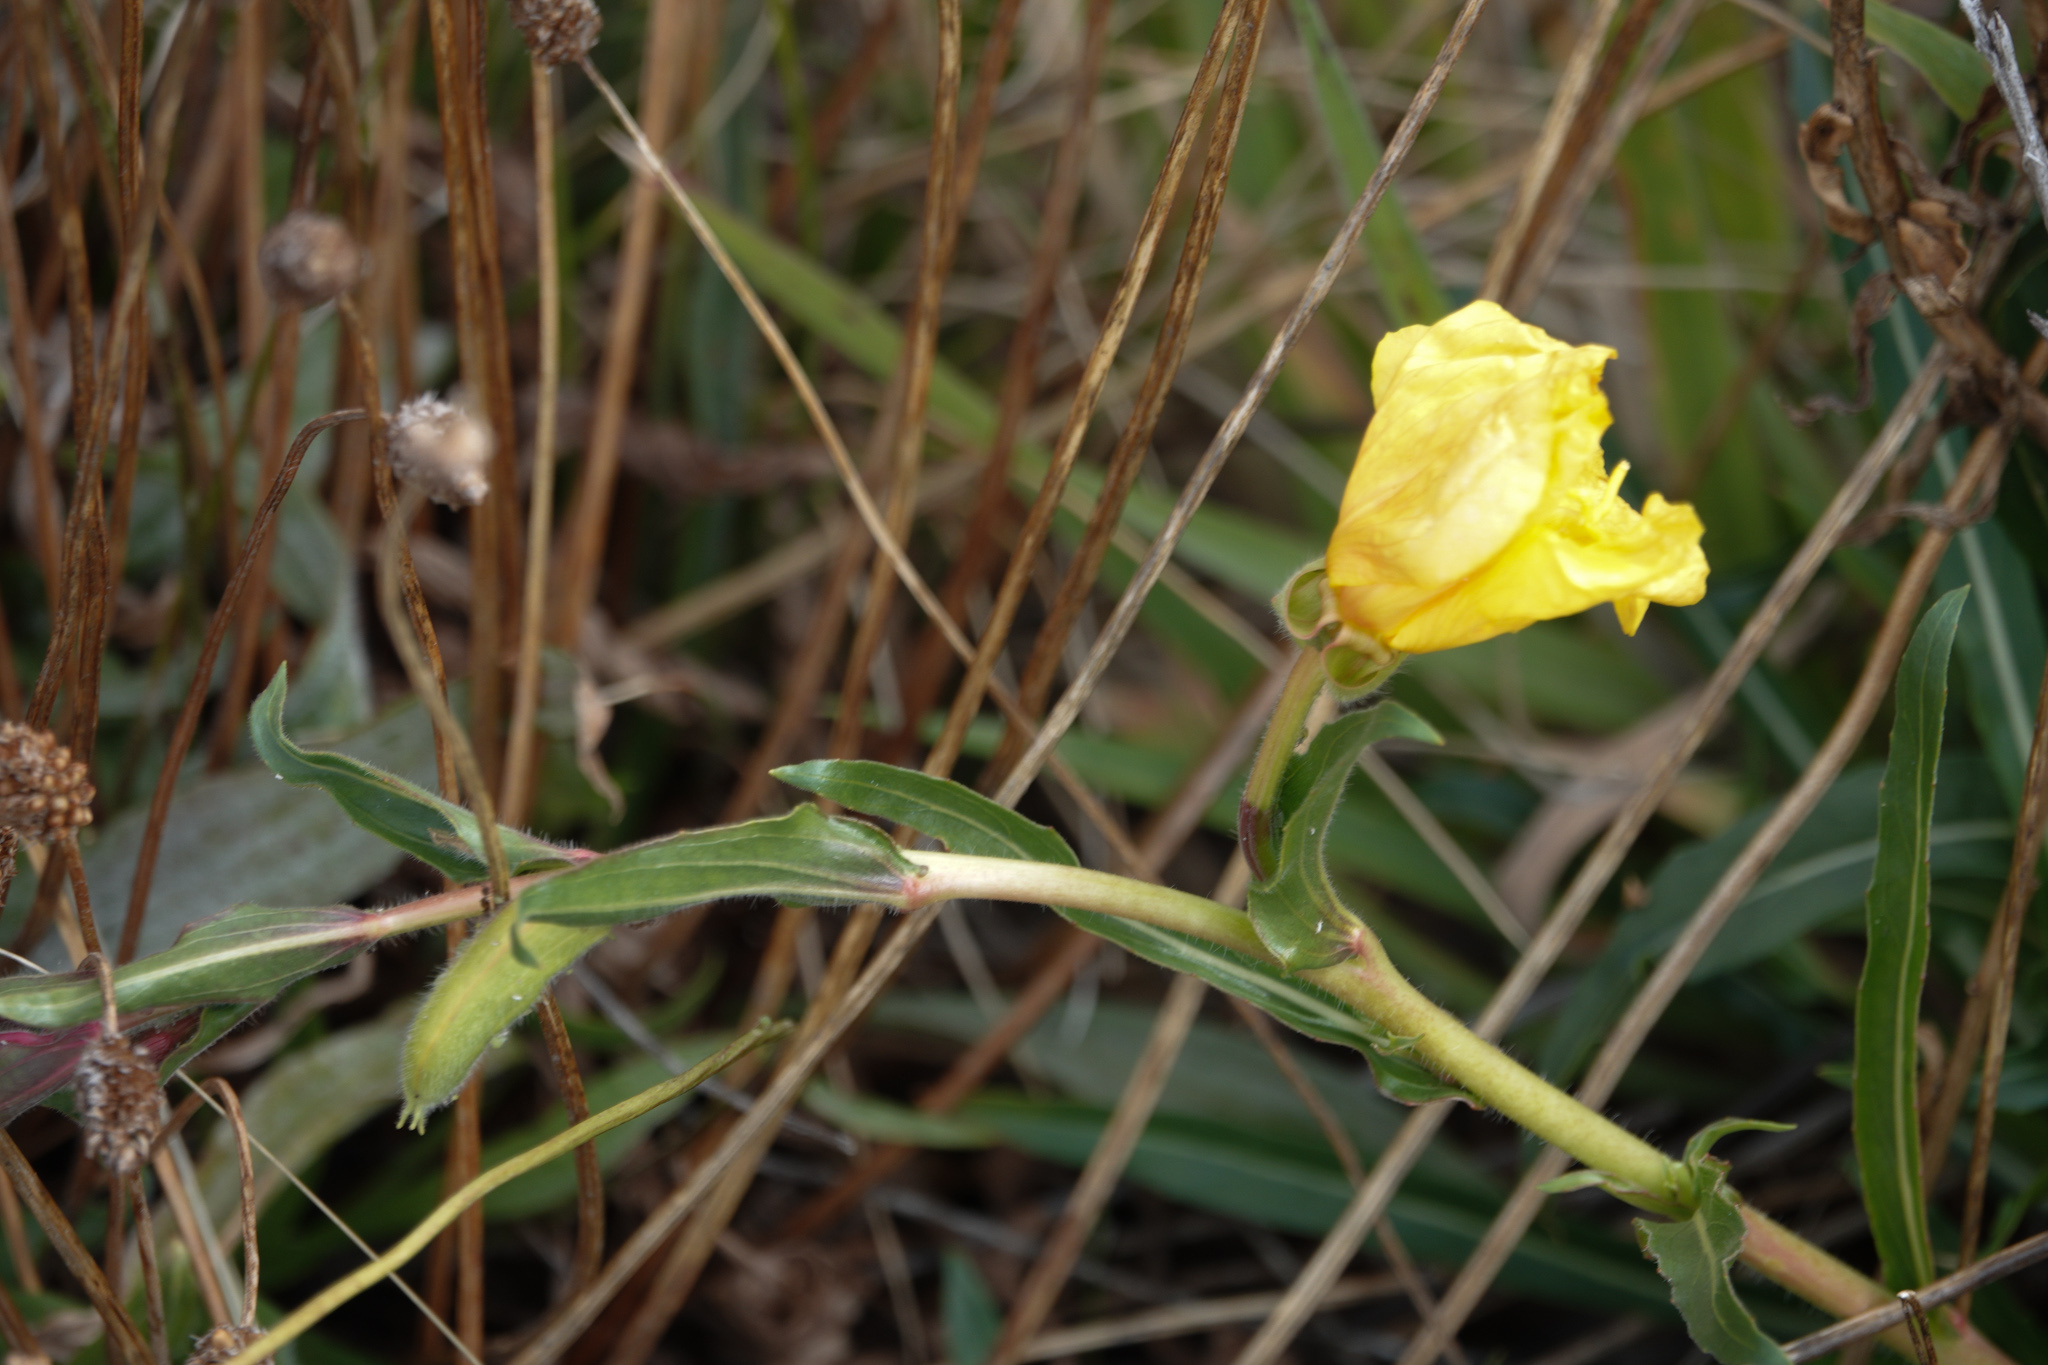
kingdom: Plantae
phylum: Tracheophyta
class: Magnoliopsida
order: Myrtales
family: Onagraceae
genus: Oenothera
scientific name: Oenothera stricta
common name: Fragrant evening-primrose
